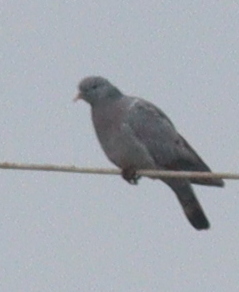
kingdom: Animalia
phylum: Chordata
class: Aves
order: Columbiformes
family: Columbidae
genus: Columba
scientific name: Columba oenas
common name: Stock dove
